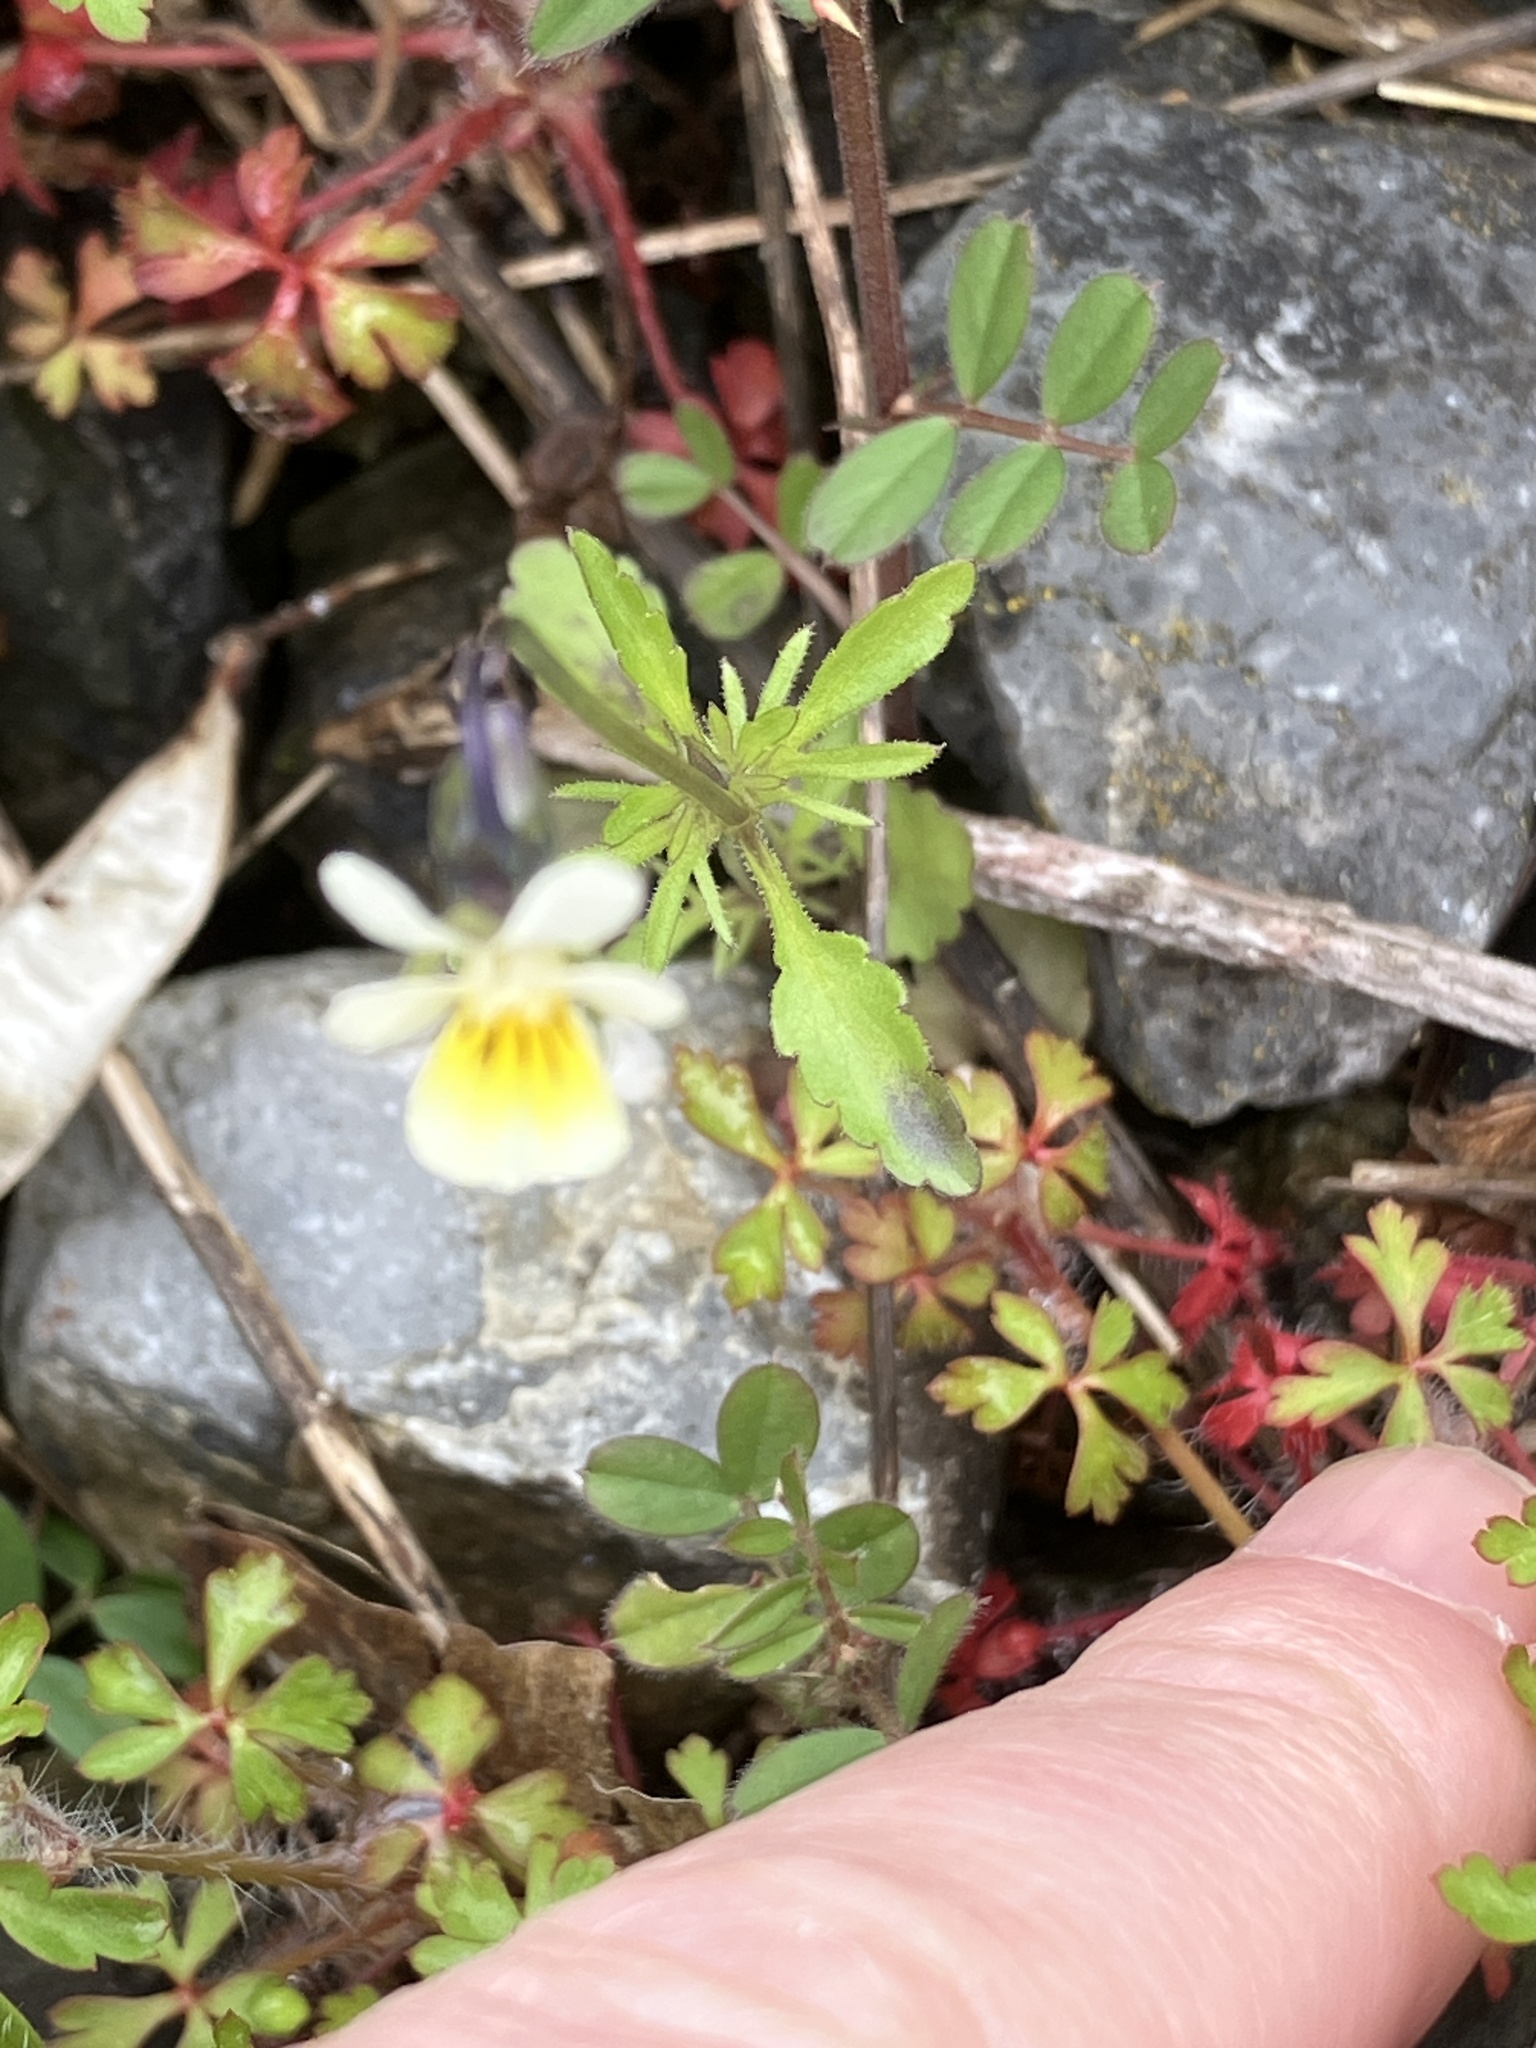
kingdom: Plantae
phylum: Tracheophyta
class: Magnoliopsida
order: Malpighiales
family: Violaceae
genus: Viola
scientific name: Viola arvensis
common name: Field pansy
